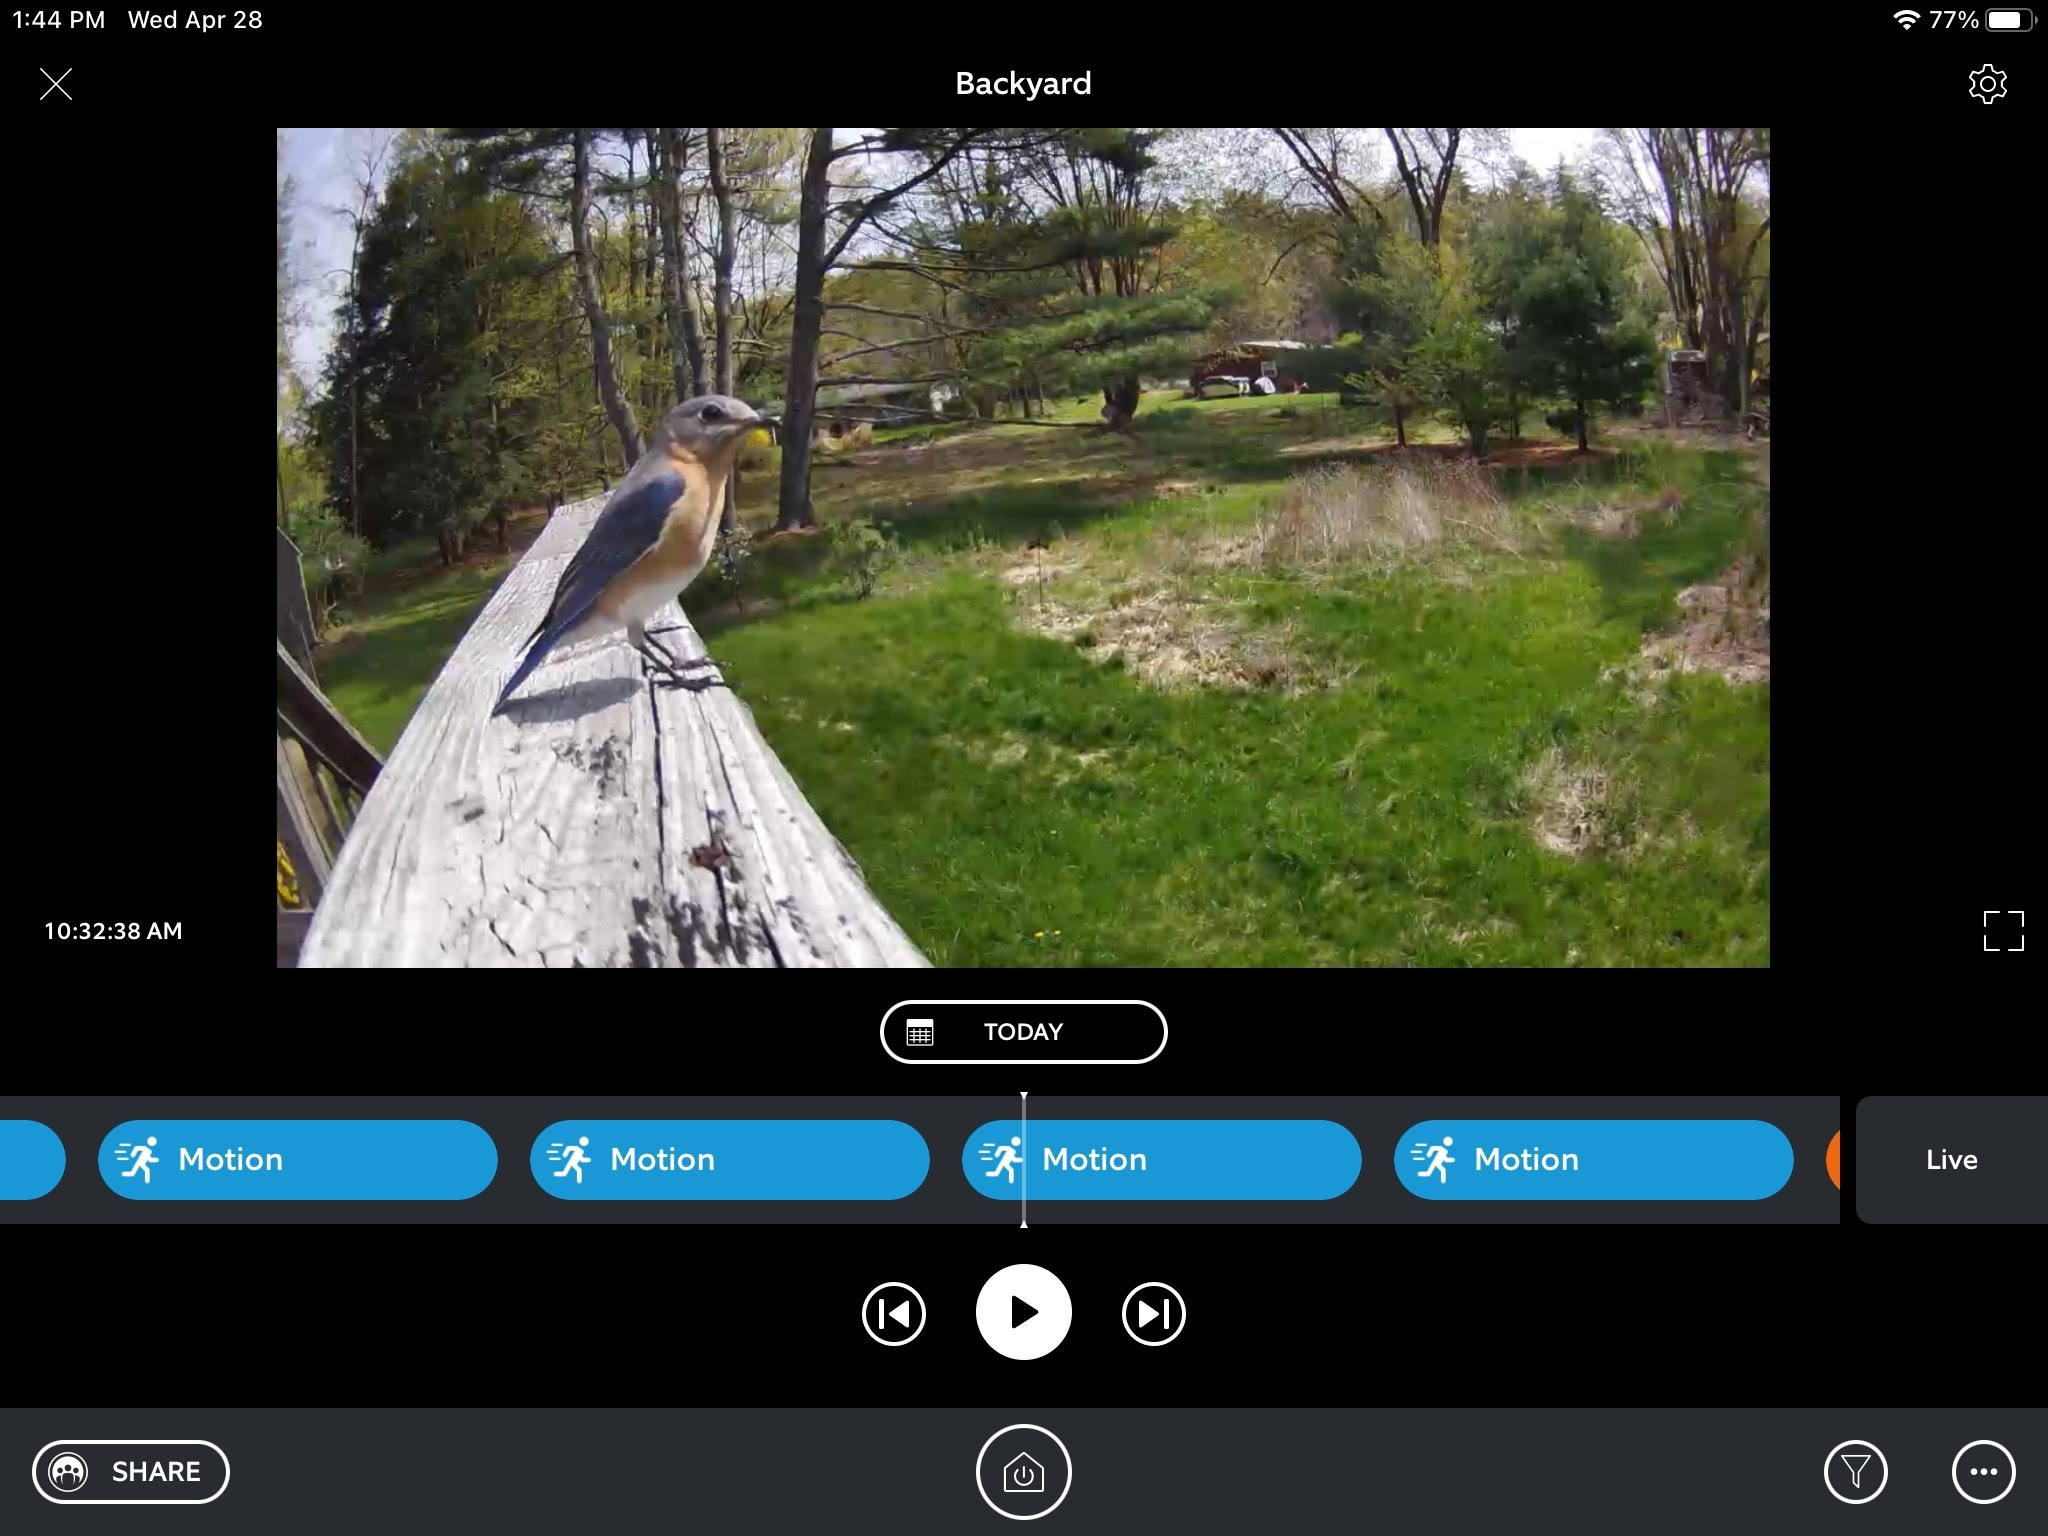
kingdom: Animalia
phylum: Chordata
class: Aves
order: Passeriformes
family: Turdidae
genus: Sialia
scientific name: Sialia sialis
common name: Eastern bluebird
